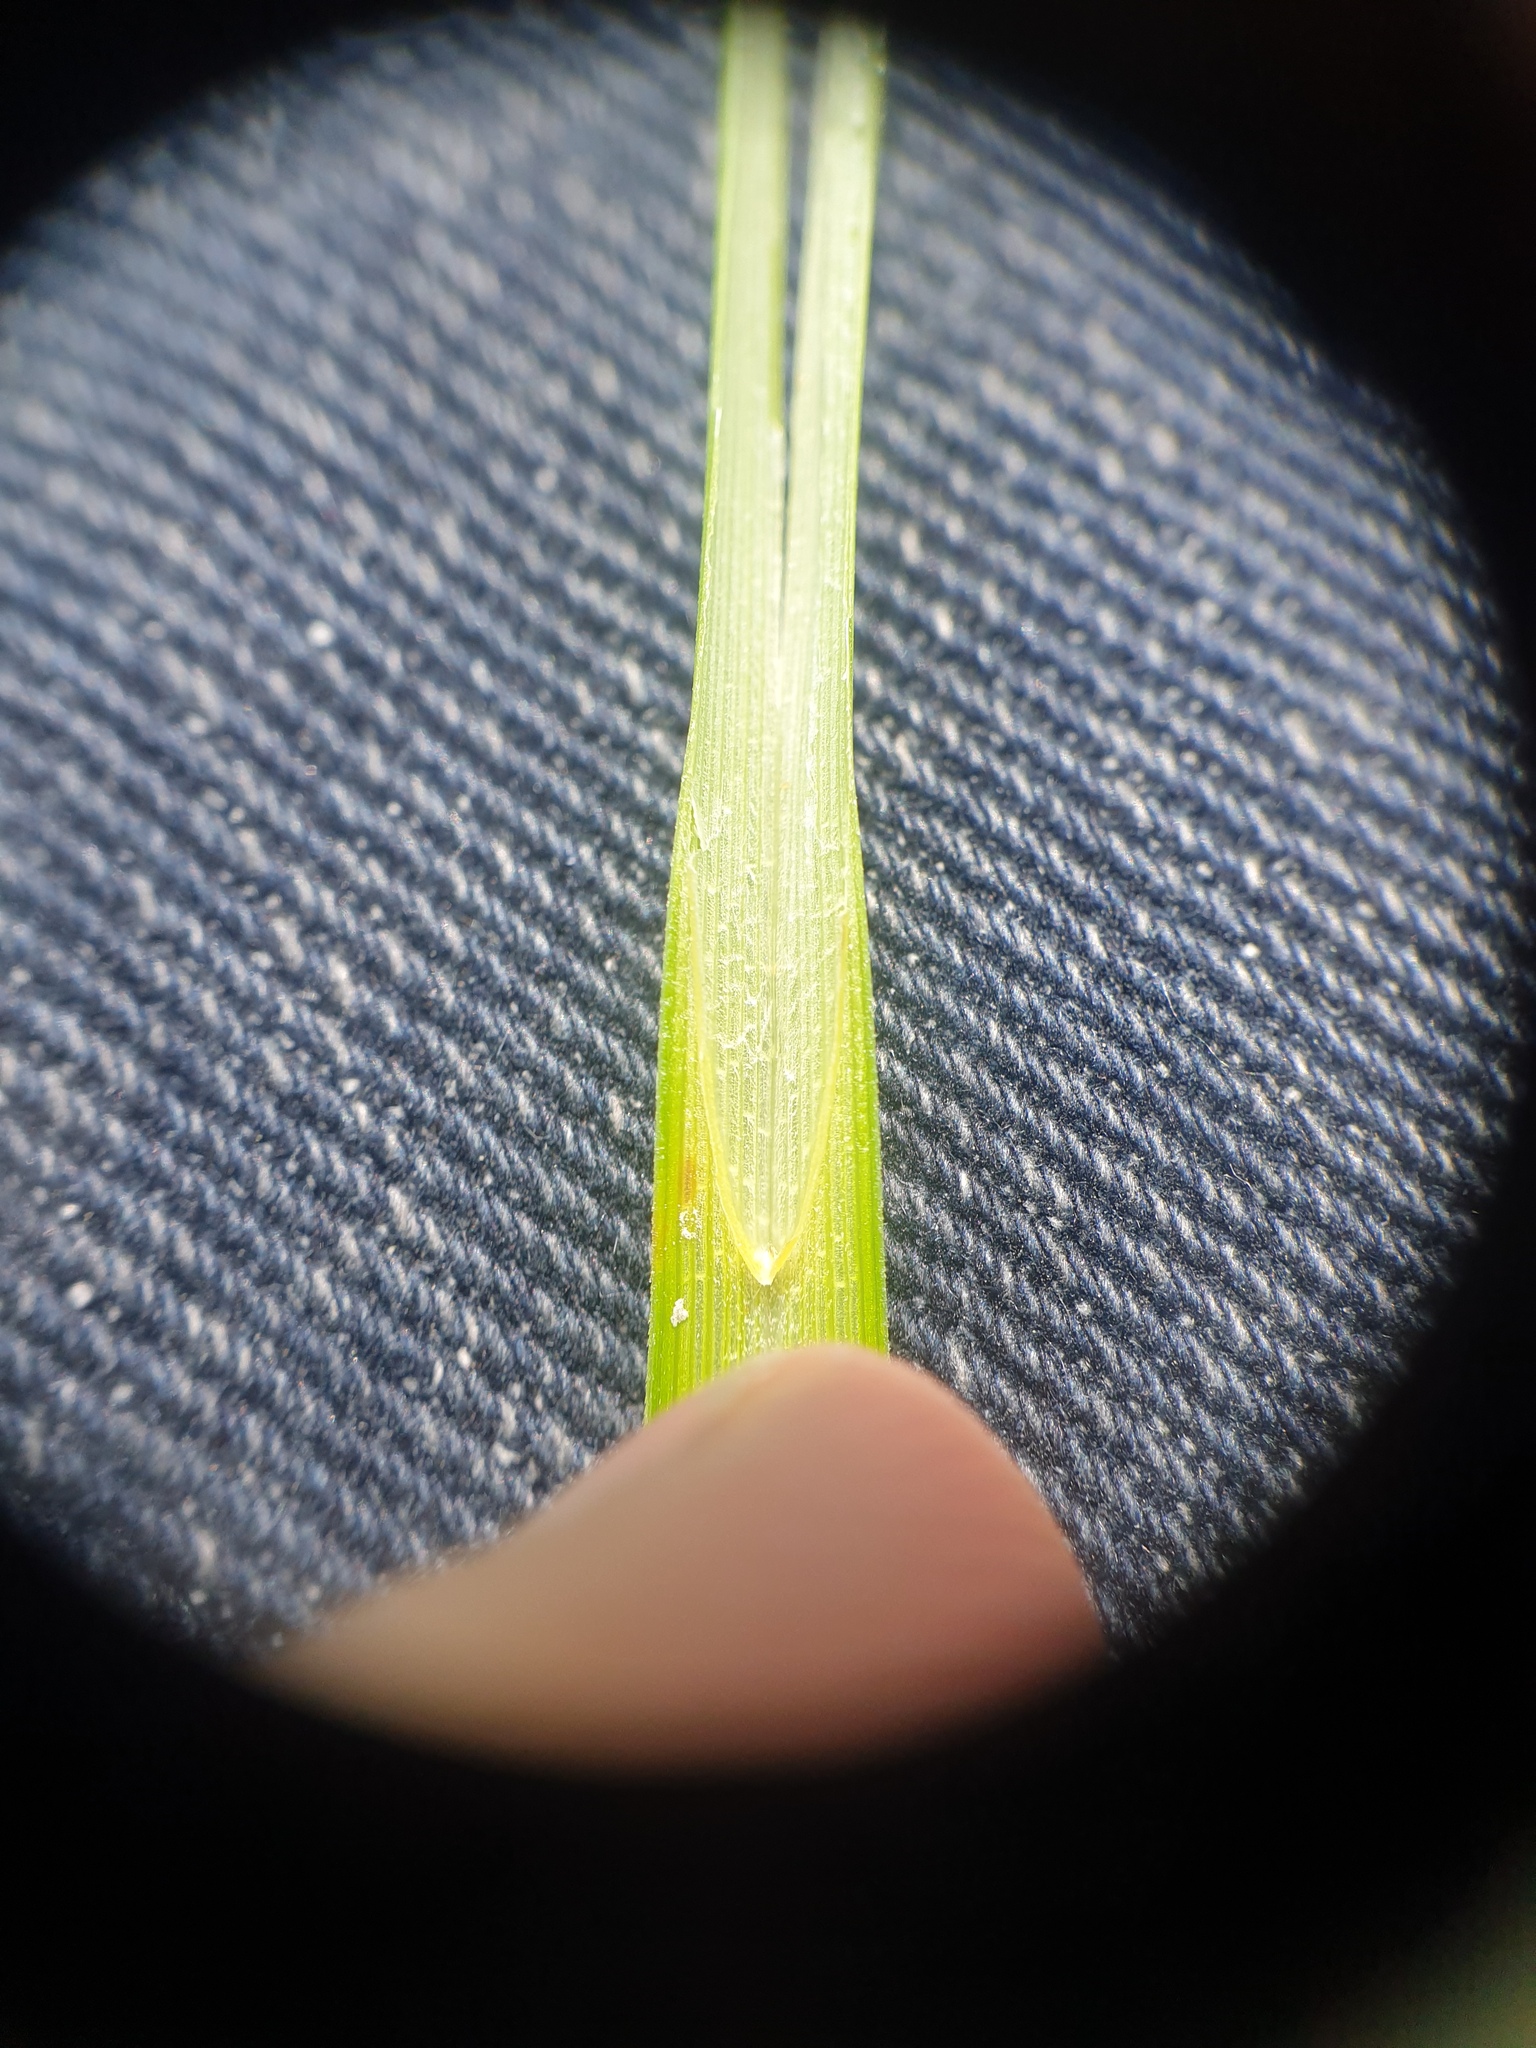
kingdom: Plantae
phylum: Tracheophyta
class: Liliopsida
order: Poales
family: Cyperaceae
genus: Carex
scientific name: Carex laeviconica
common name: Plains slough sedge
